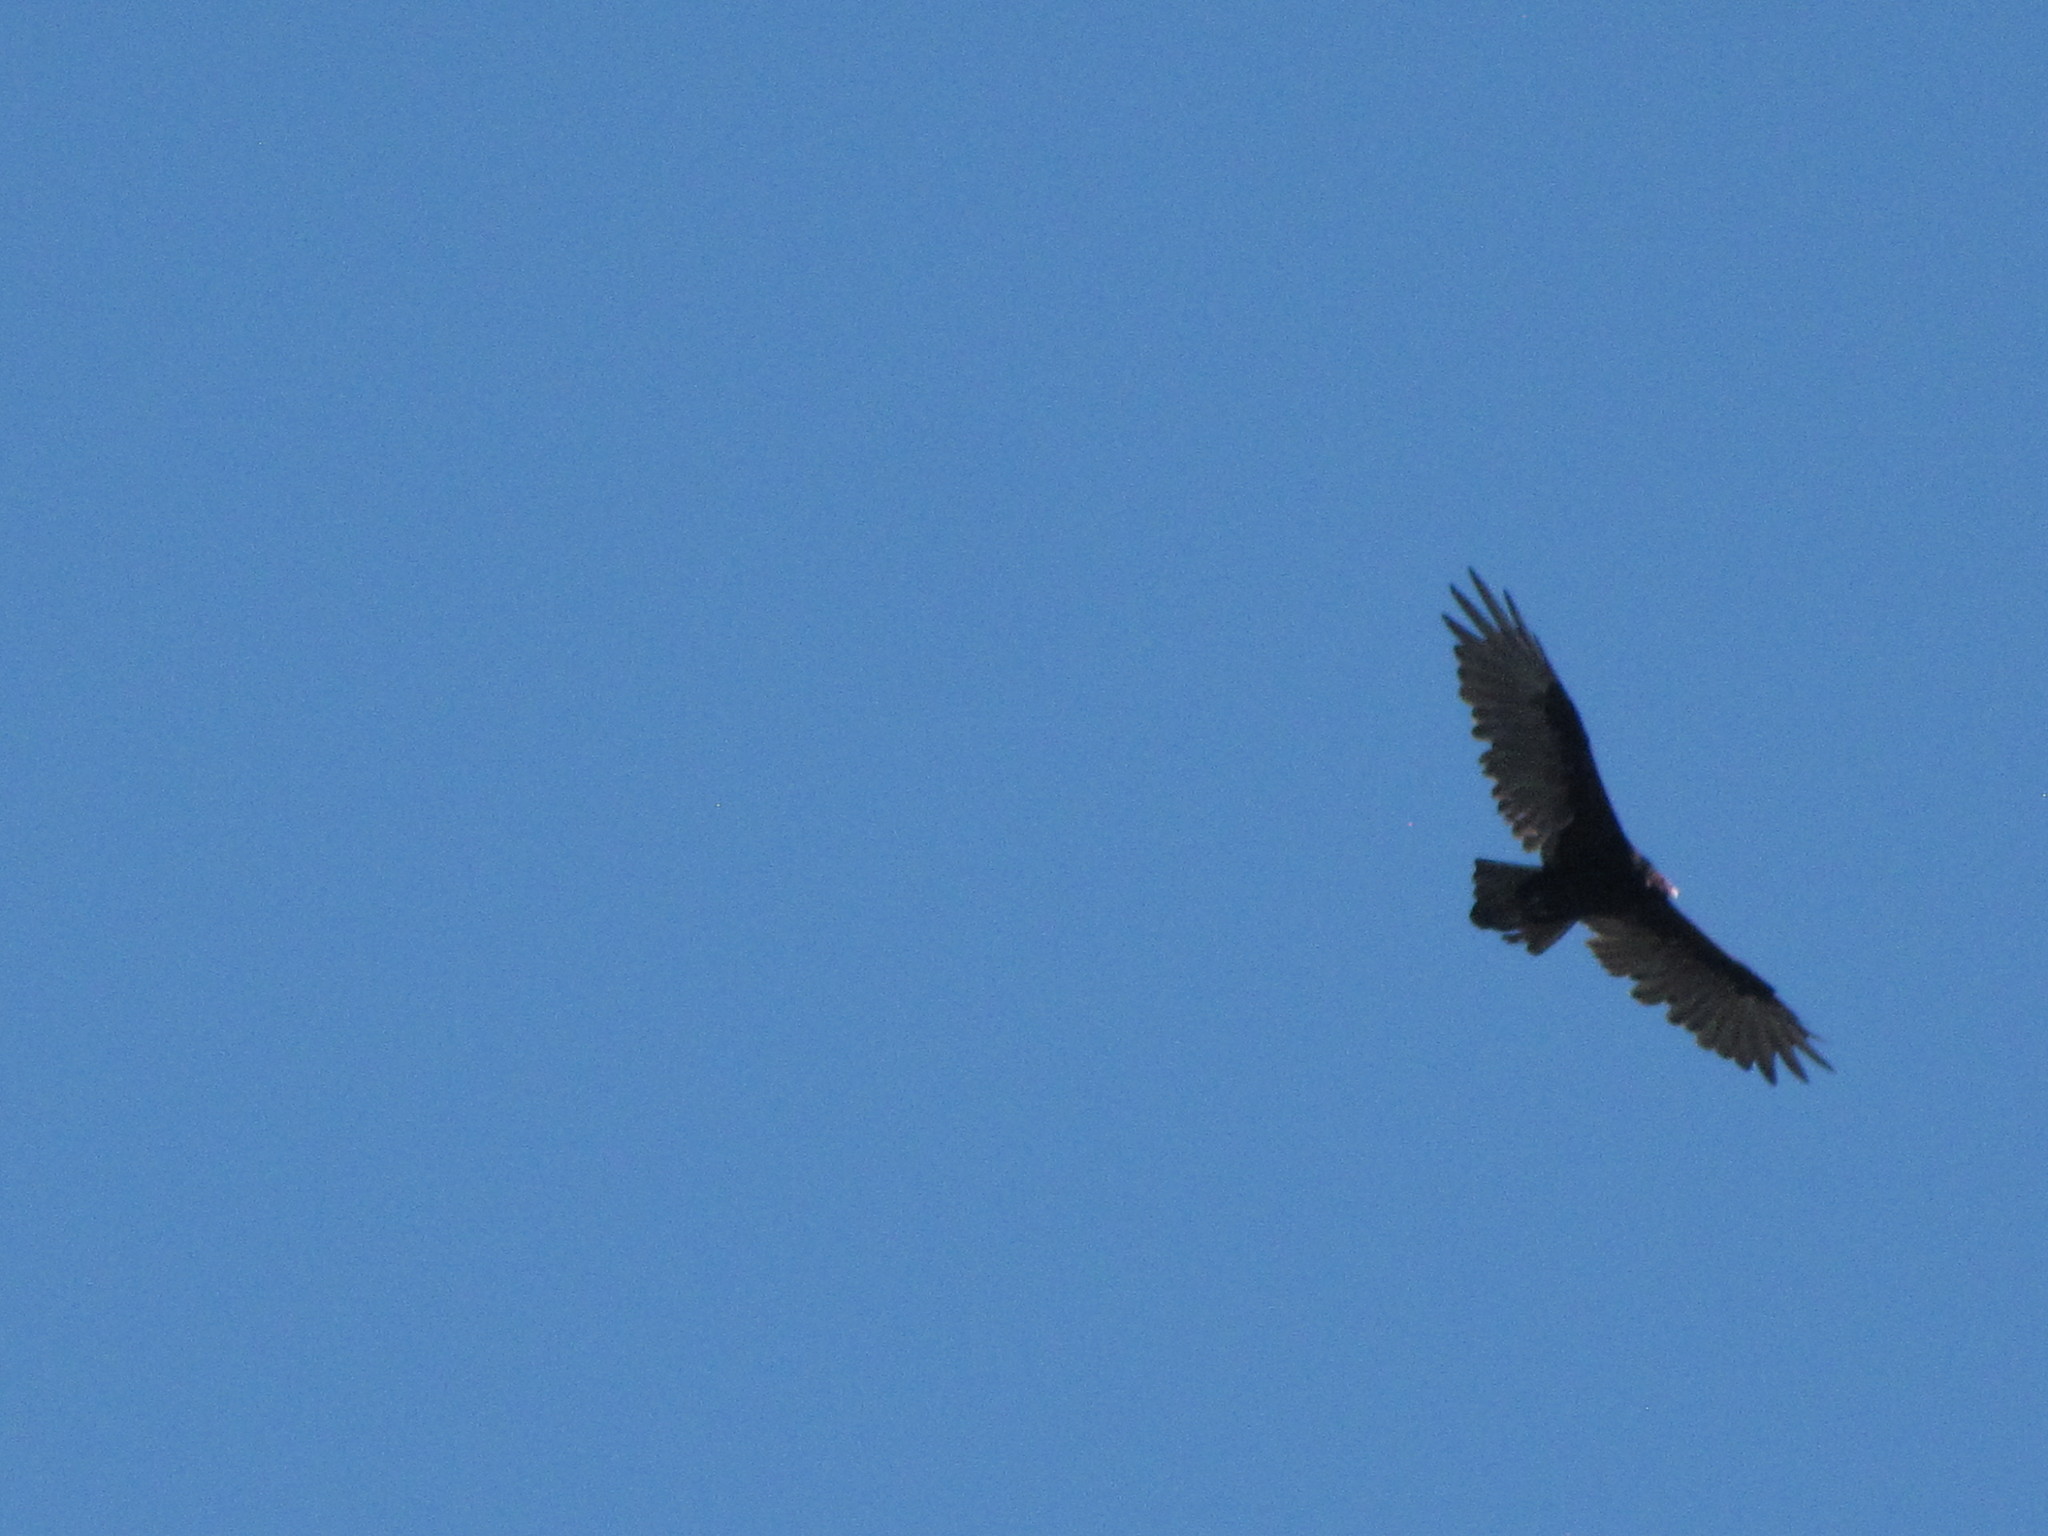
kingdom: Animalia
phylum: Chordata
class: Aves
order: Accipitriformes
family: Cathartidae
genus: Cathartes
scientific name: Cathartes aura
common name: Turkey vulture
